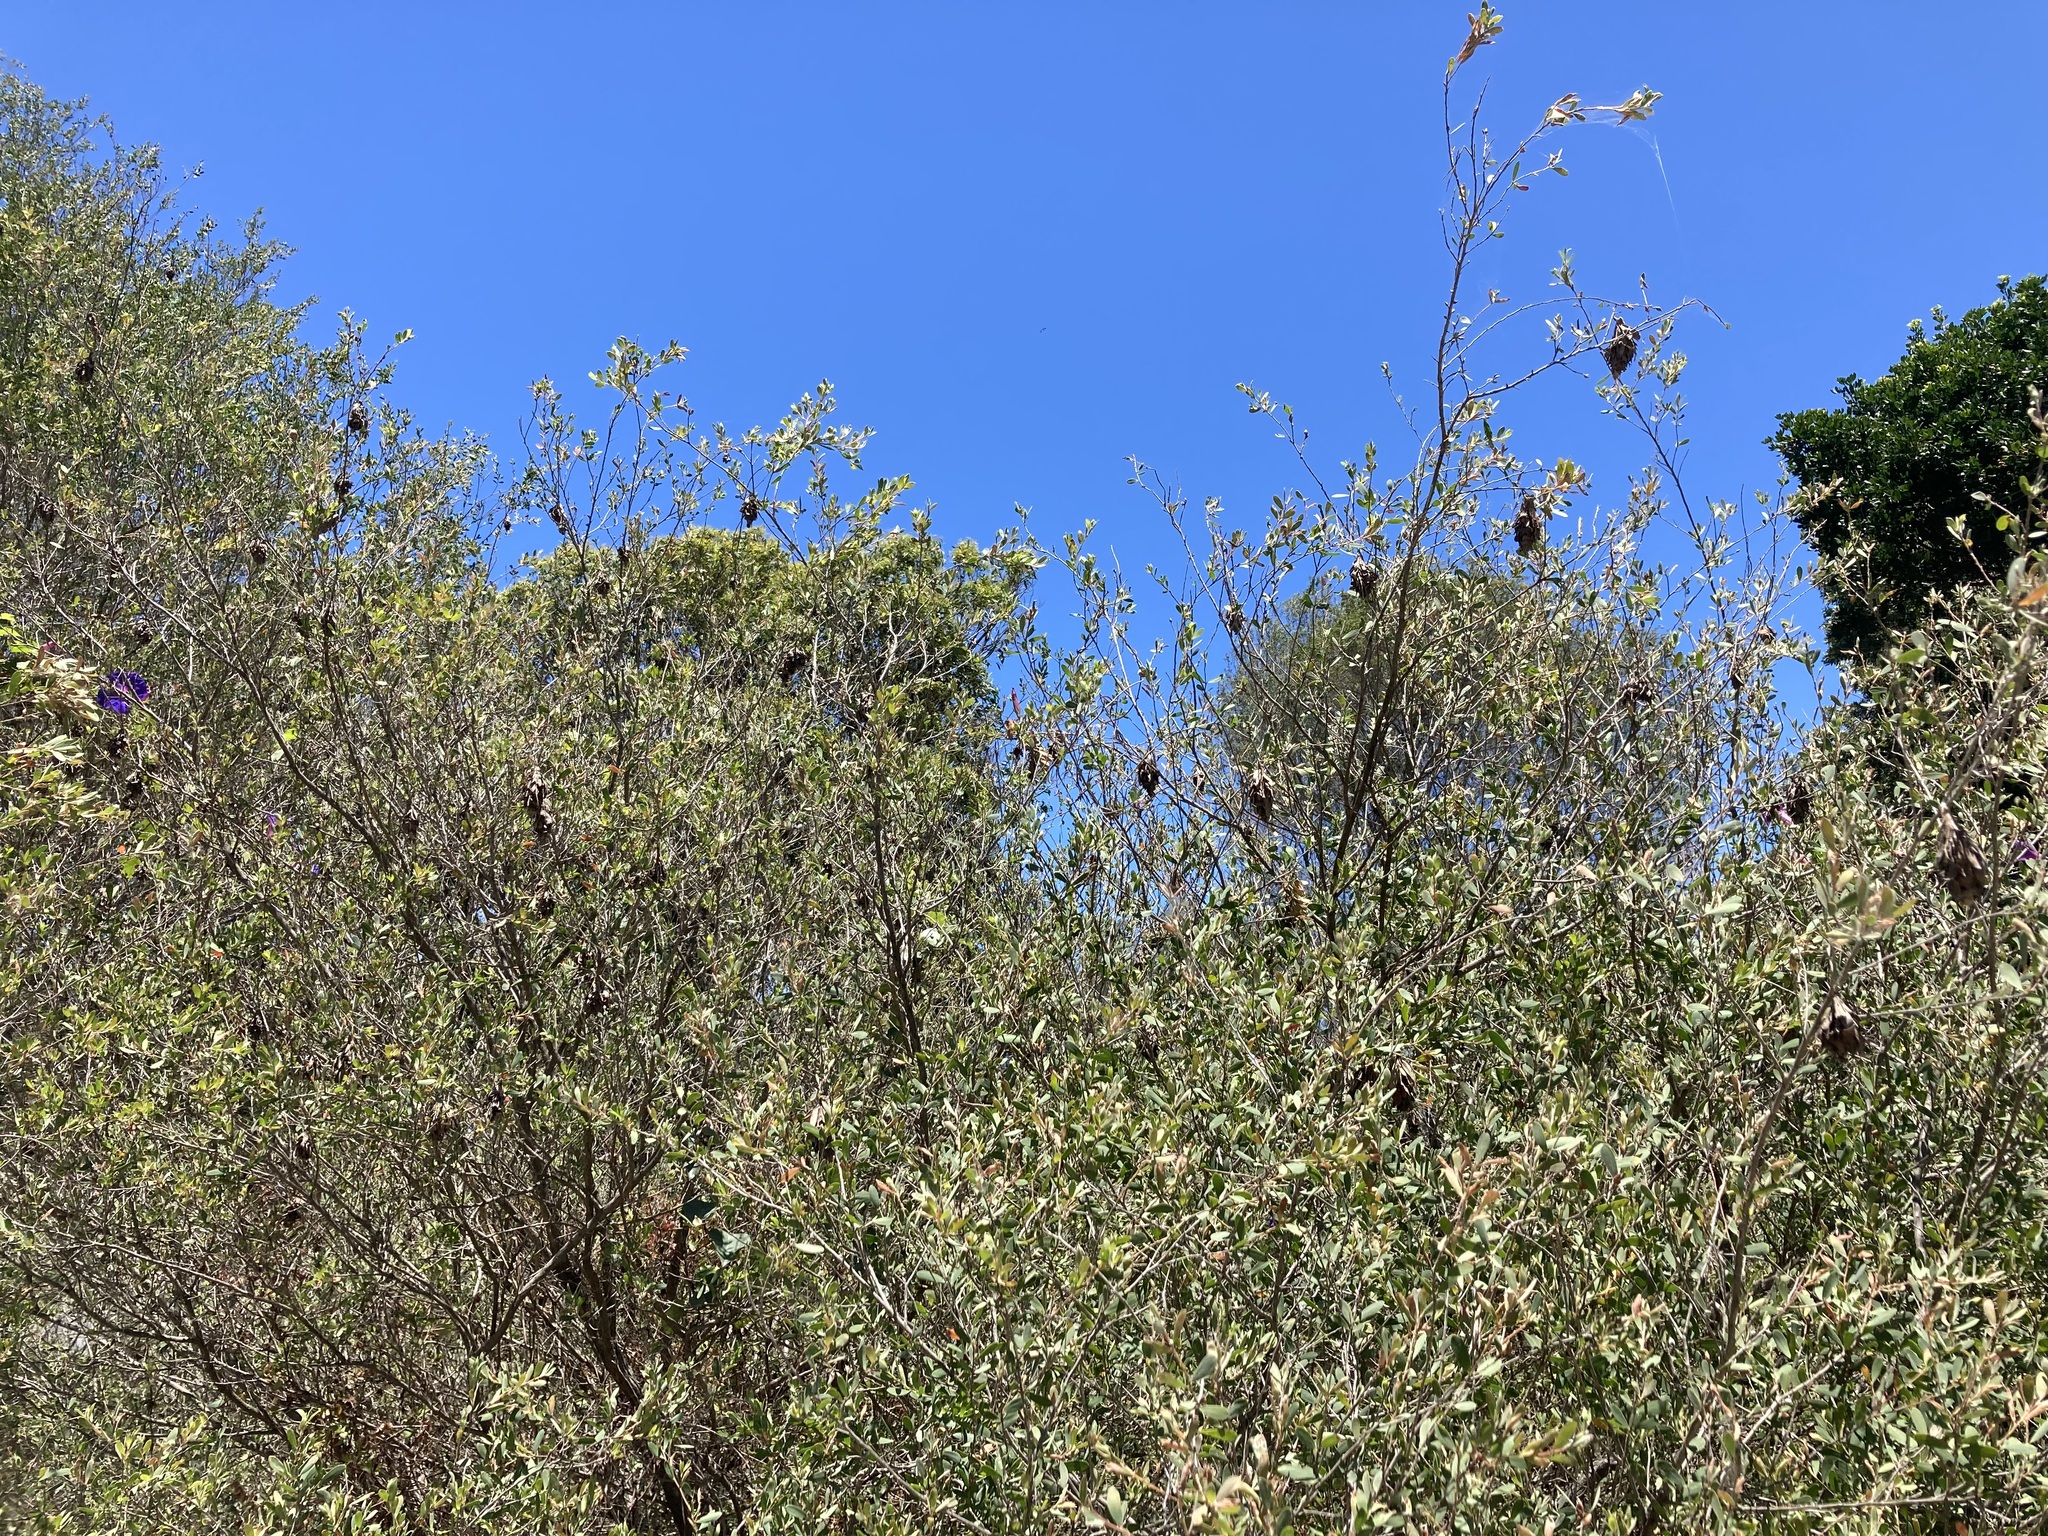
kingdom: Animalia
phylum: Arthropoda
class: Insecta
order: Lepidoptera
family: Psychidae
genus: Hyalarcta
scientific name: Hyalarcta huebneri
